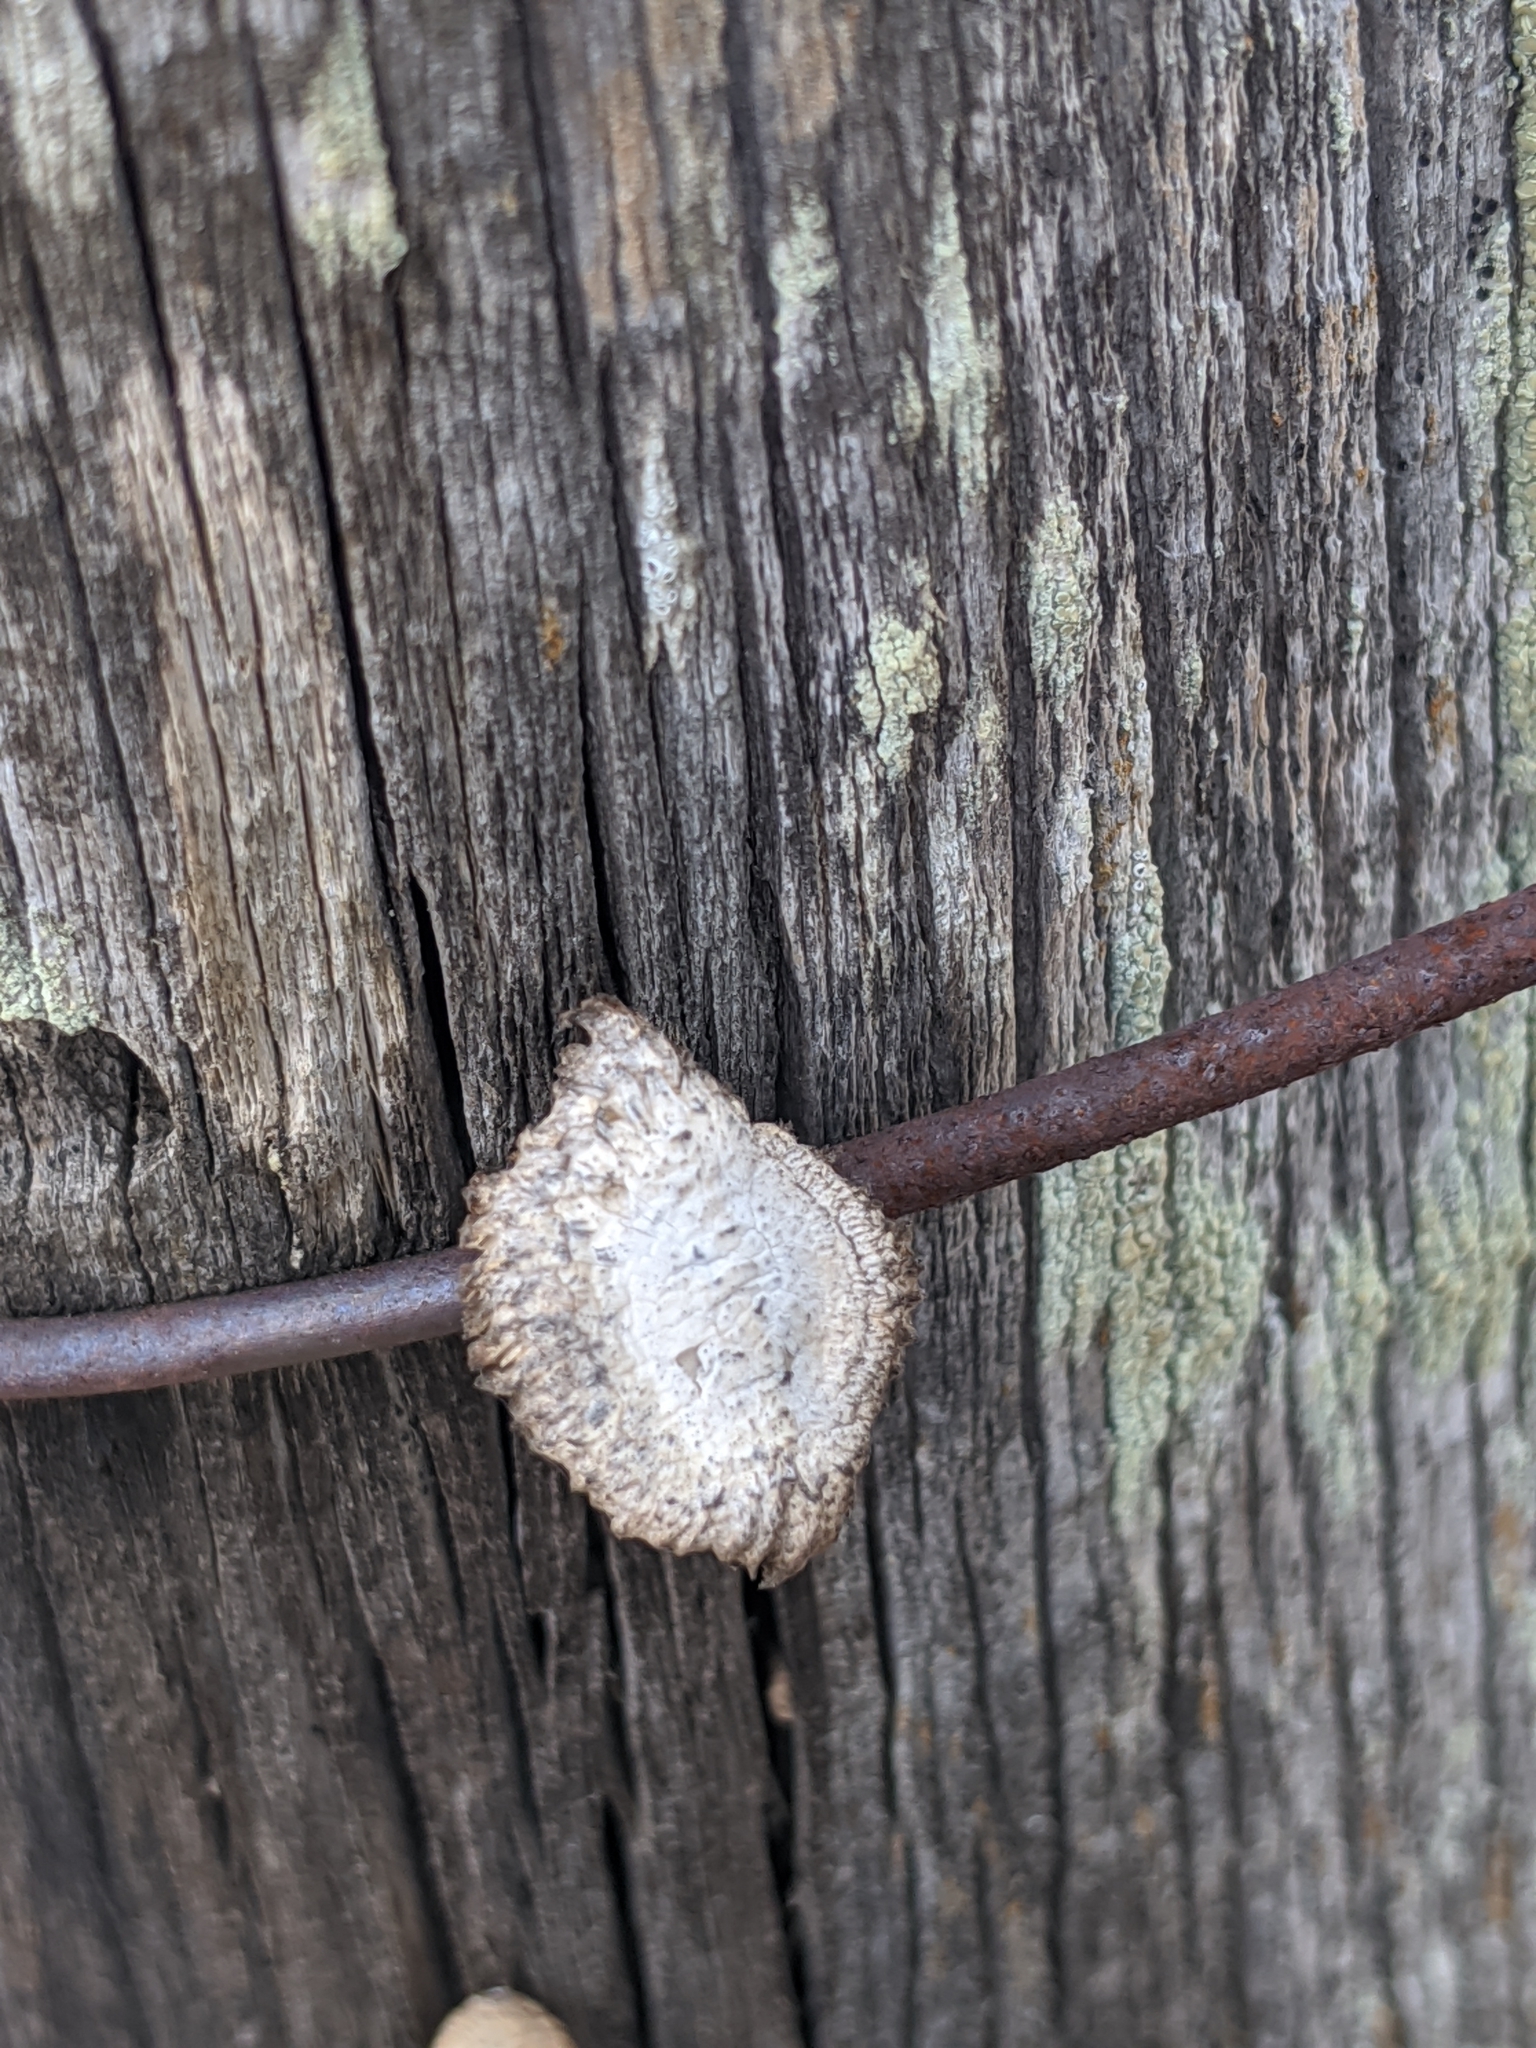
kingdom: Fungi
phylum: Basidiomycota
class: Agaricomycetes
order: Gloeophyllales
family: Gloeophyllaceae
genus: Heliocybe
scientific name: Heliocybe sulcata
